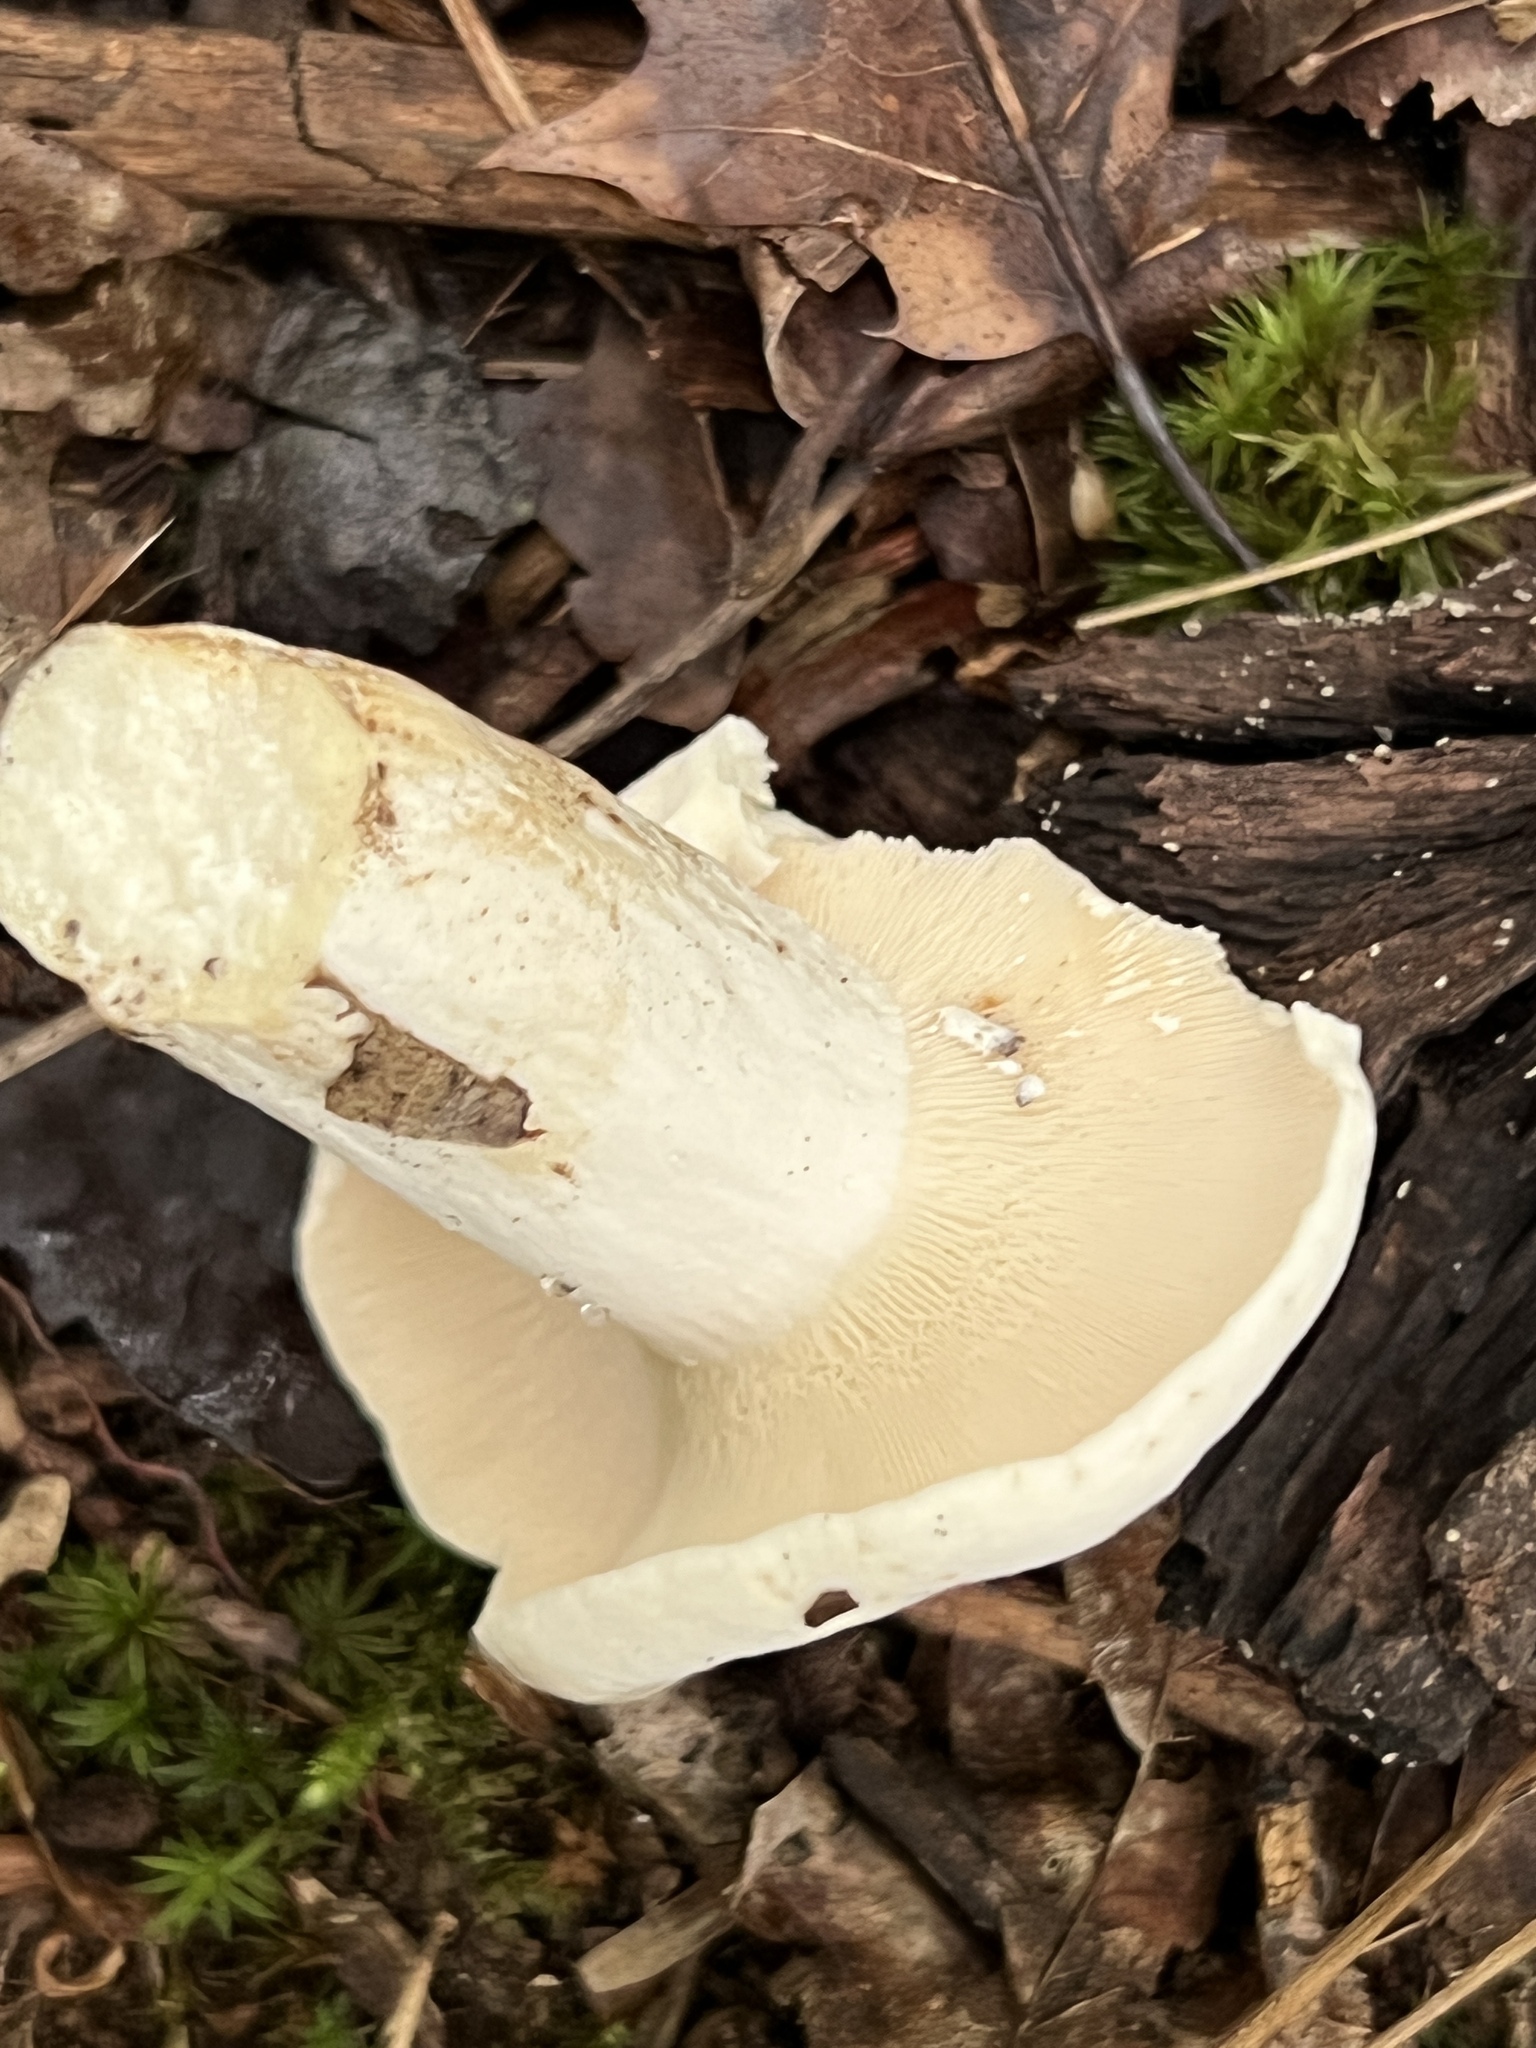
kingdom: Fungi
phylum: Basidiomycota
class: Agaricomycetes
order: Russulales
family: Russulaceae
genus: Lactifluus
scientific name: Lactifluus piperatus
